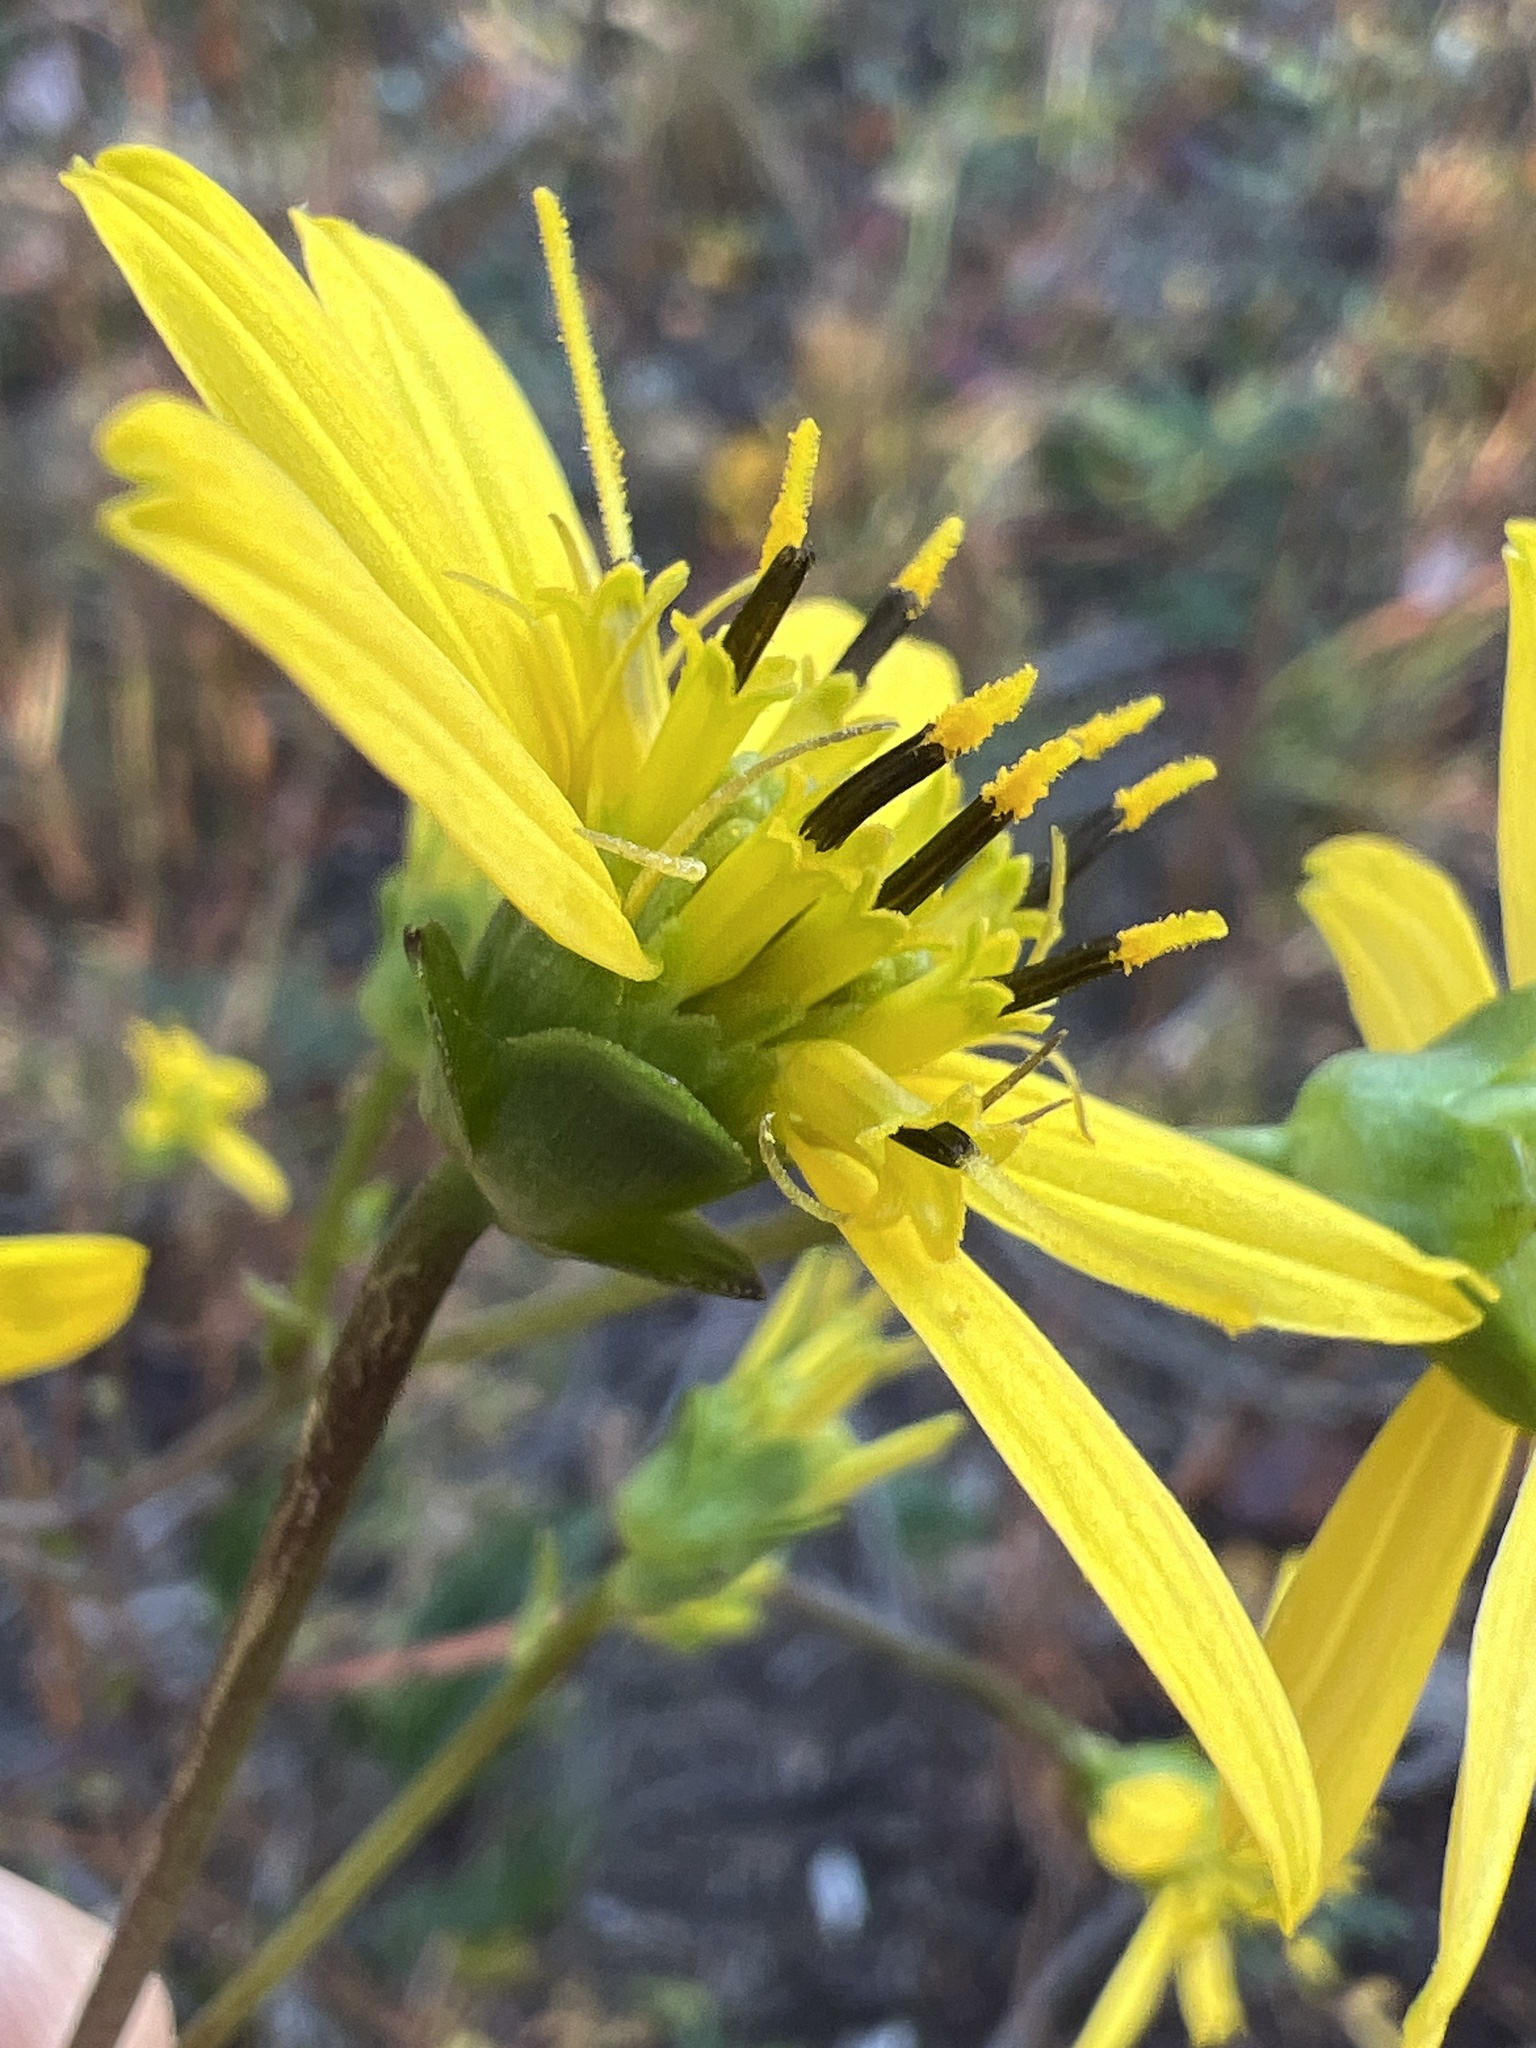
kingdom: Plantae
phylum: Tracheophyta
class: Magnoliopsida
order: Asterales
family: Asteraceae
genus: Silphium
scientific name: Silphium compositum
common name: Lesser basal-leaf rosinweed
